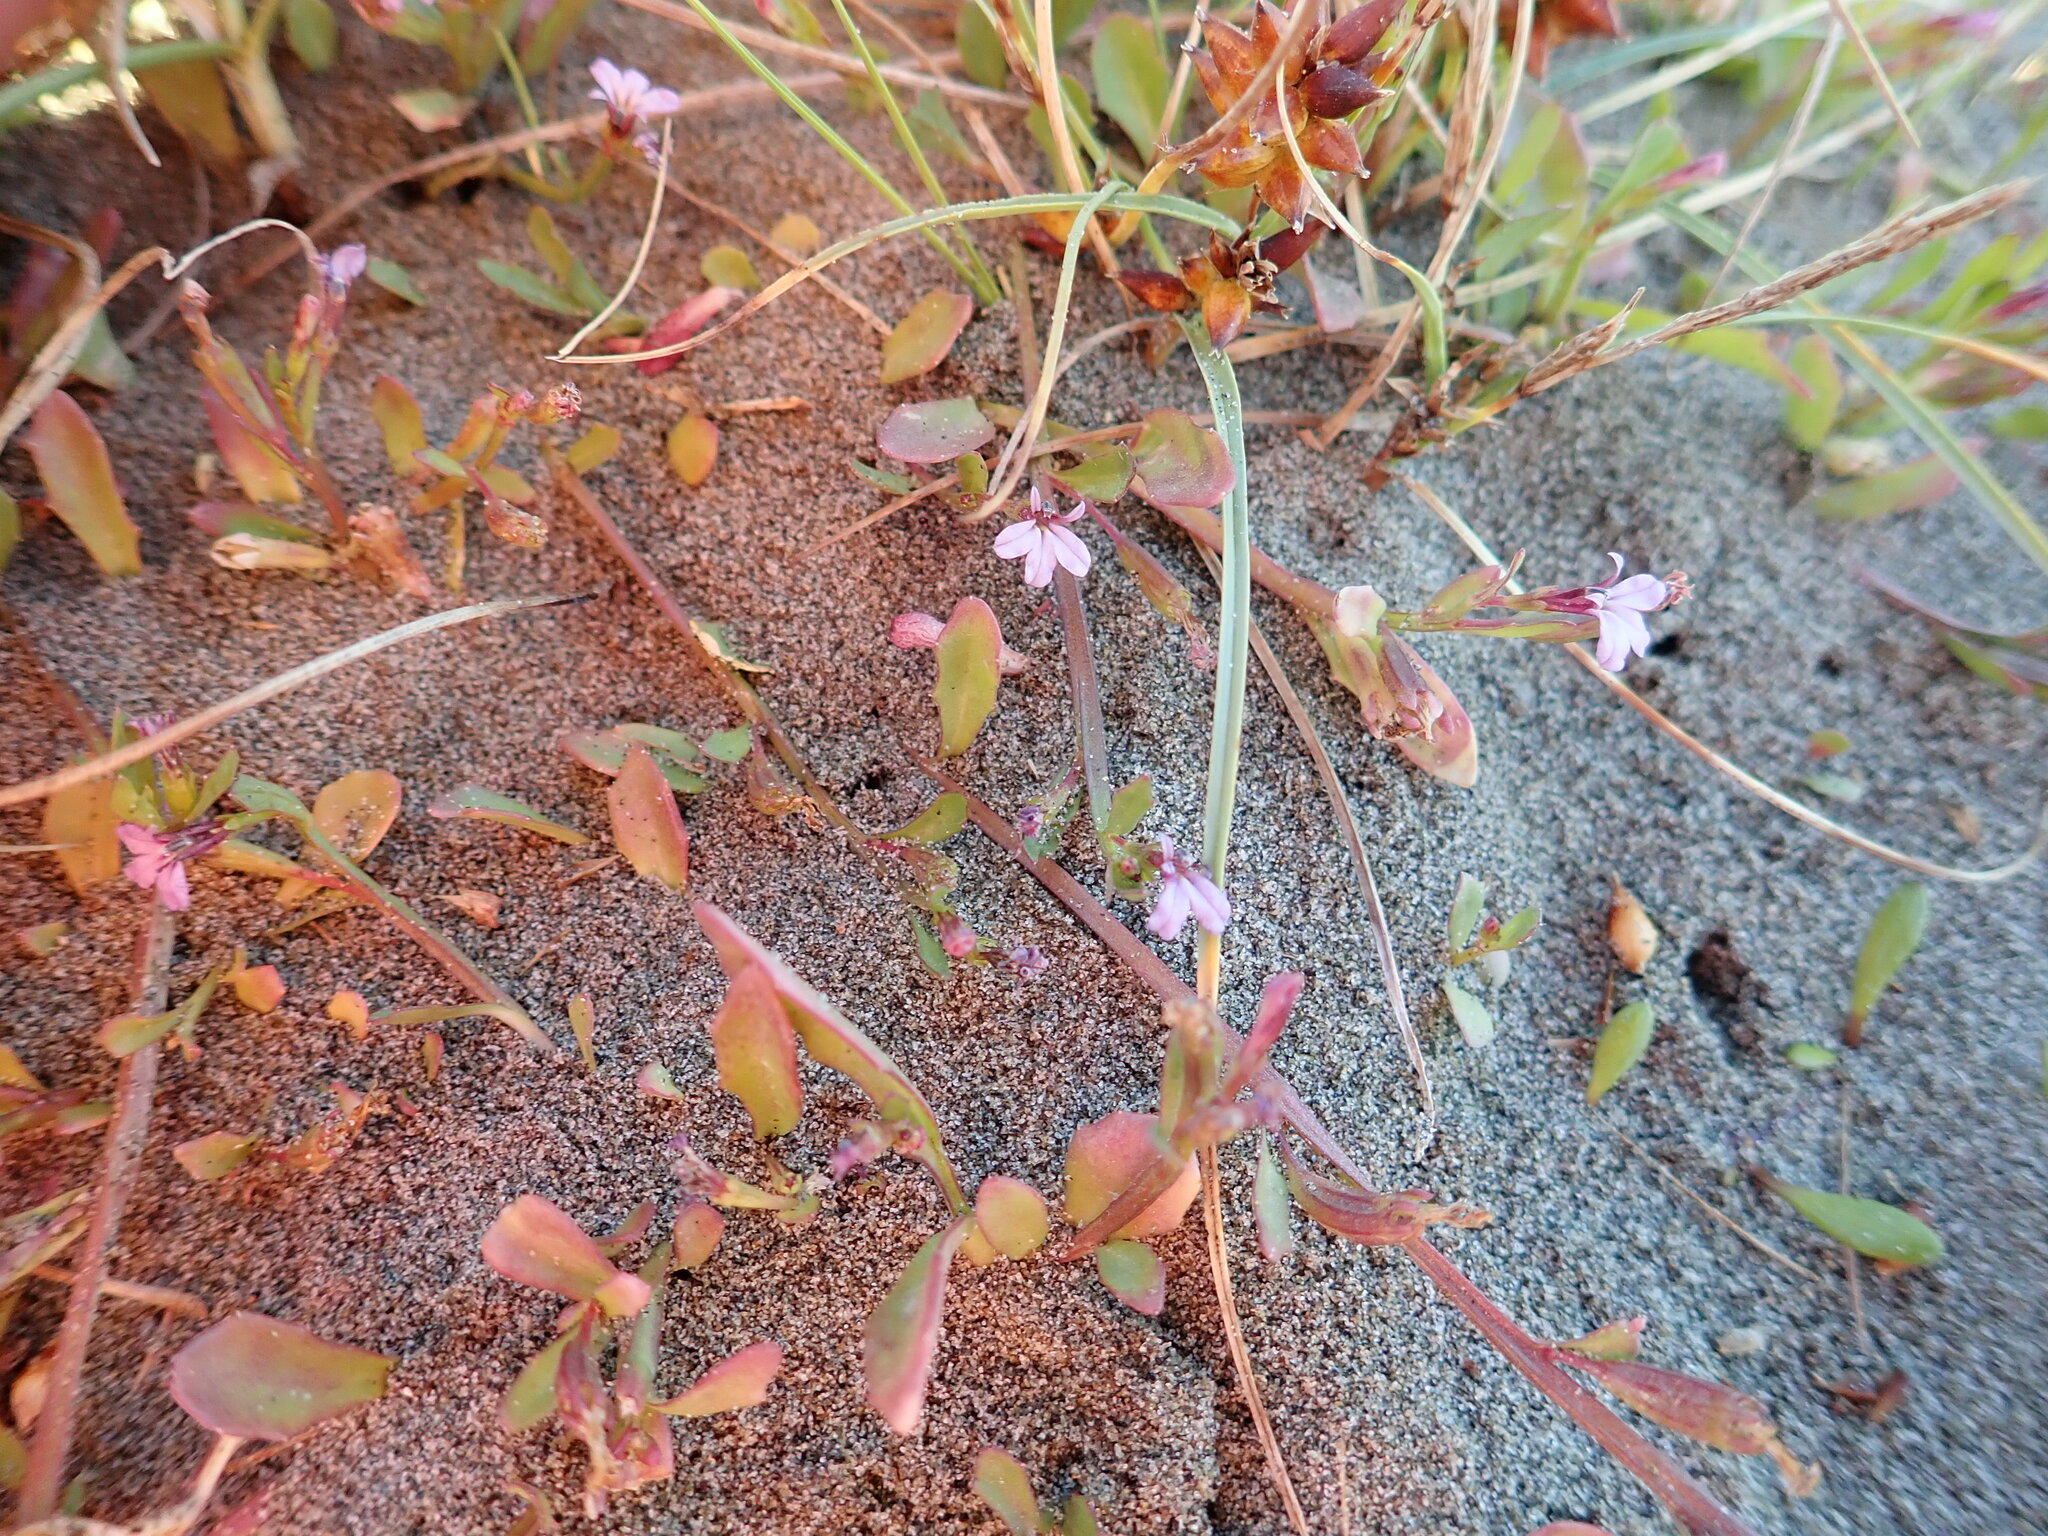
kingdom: Plantae
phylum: Tracheophyta
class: Magnoliopsida
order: Asterales
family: Campanulaceae
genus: Lobelia
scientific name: Lobelia anceps
